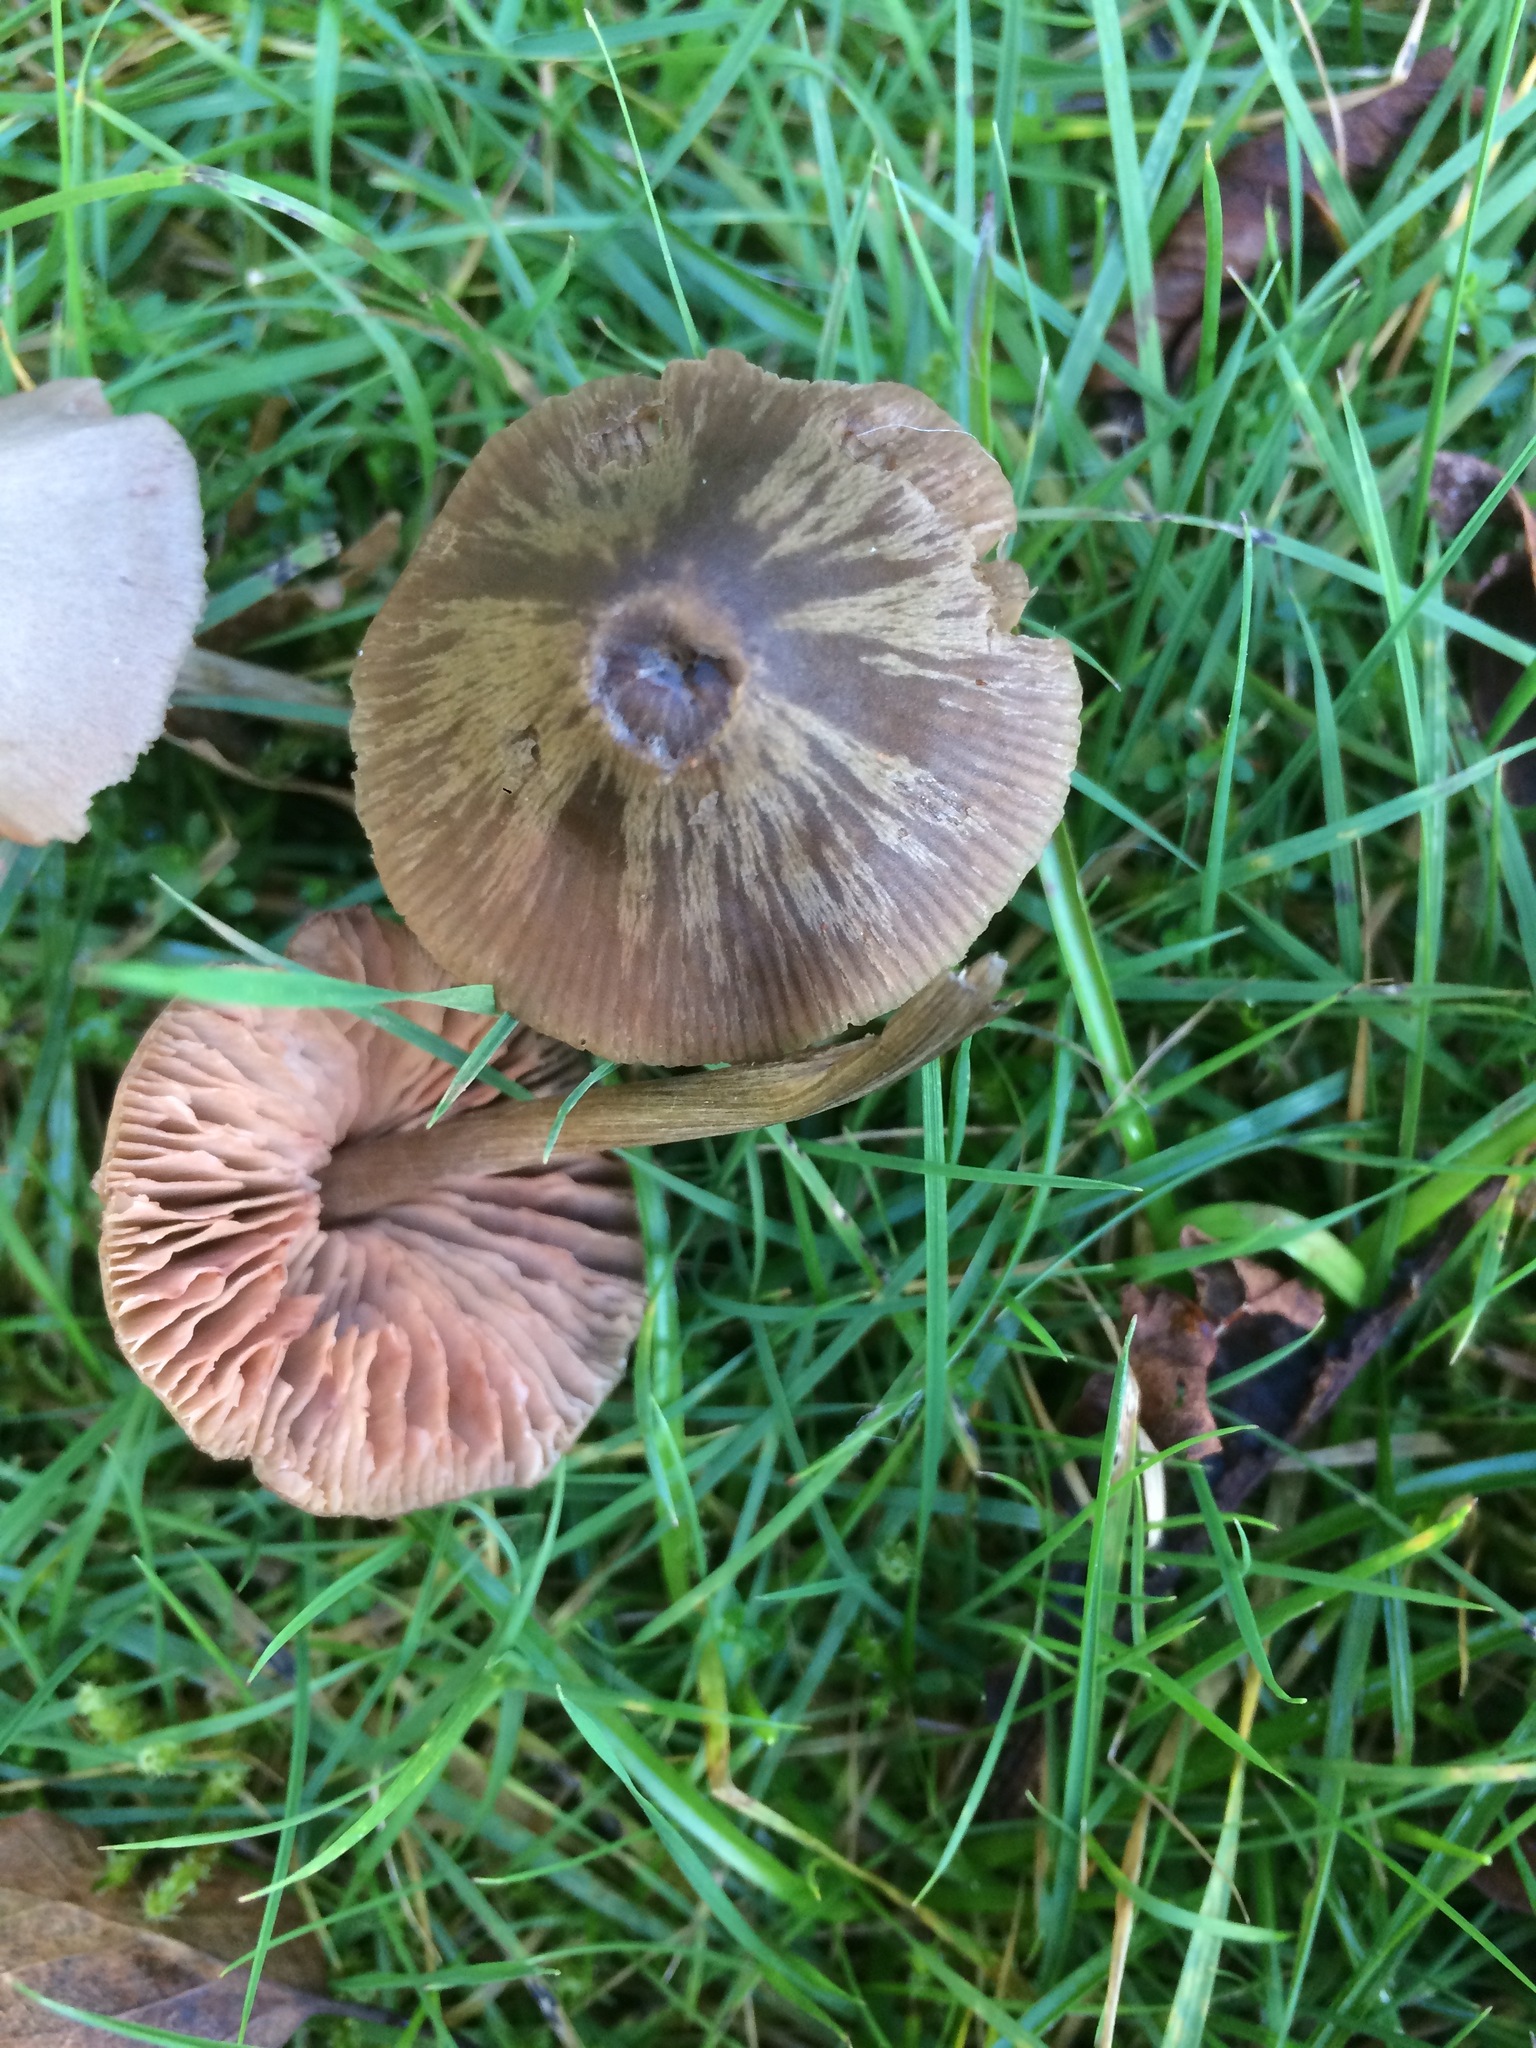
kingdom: Fungi
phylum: Basidiomycota
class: Agaricomycetes
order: Agaricales
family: Entolomataceae
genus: Entoloma
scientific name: Entoloma conferendum
